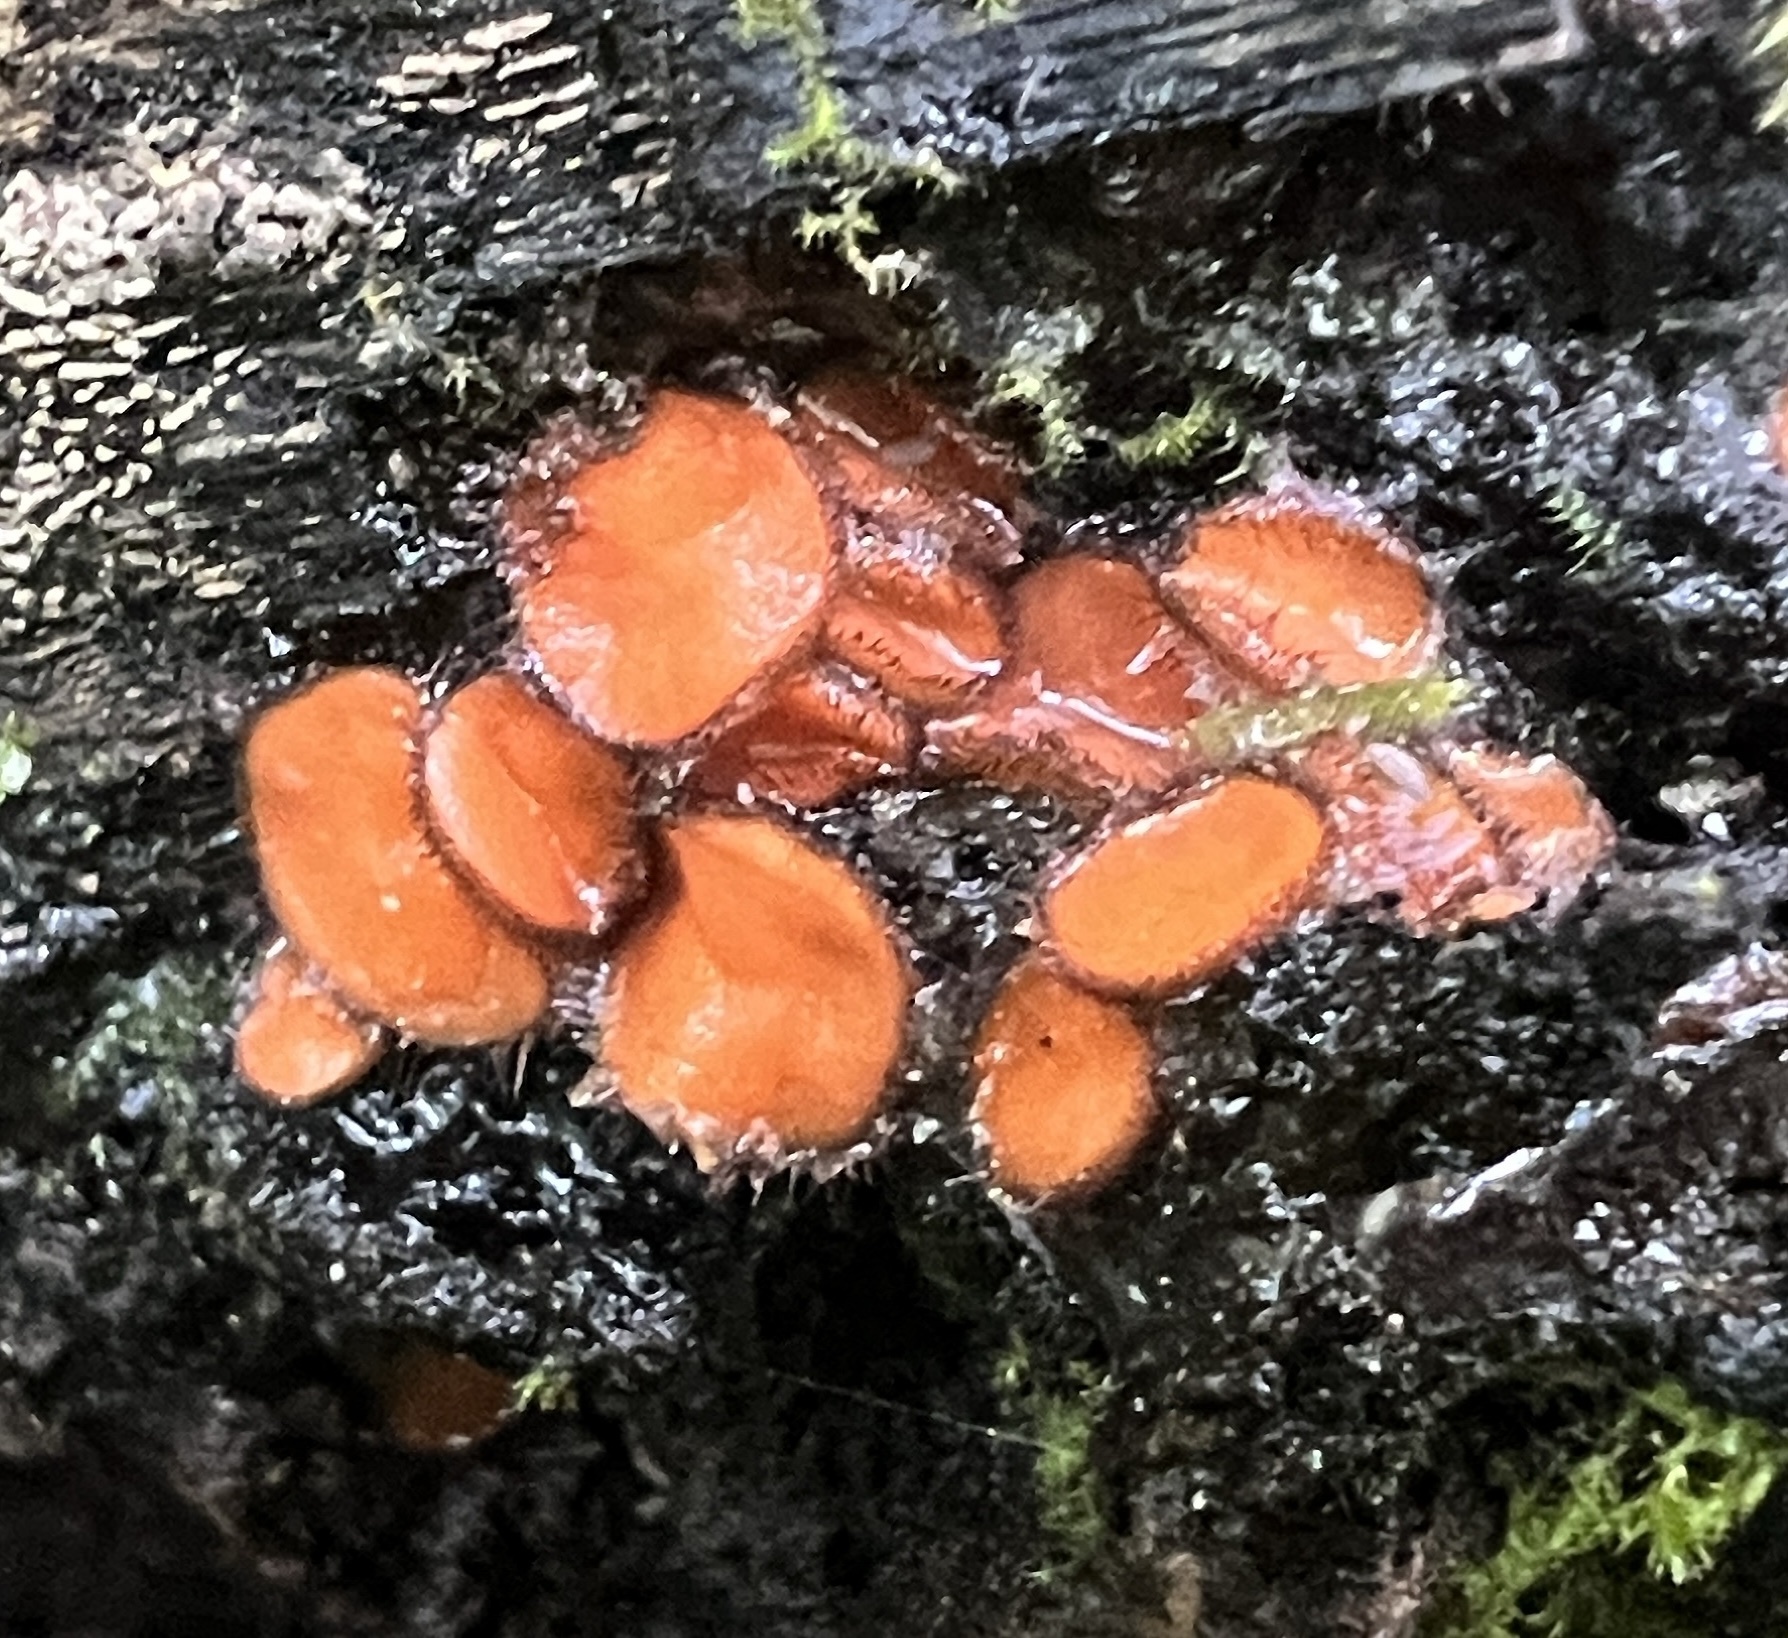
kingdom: Fungi
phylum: Ascomycota
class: Pezizomycetes
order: Pezizales
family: Pyronemataceae
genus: Scutellinia
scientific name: Scutellinia
